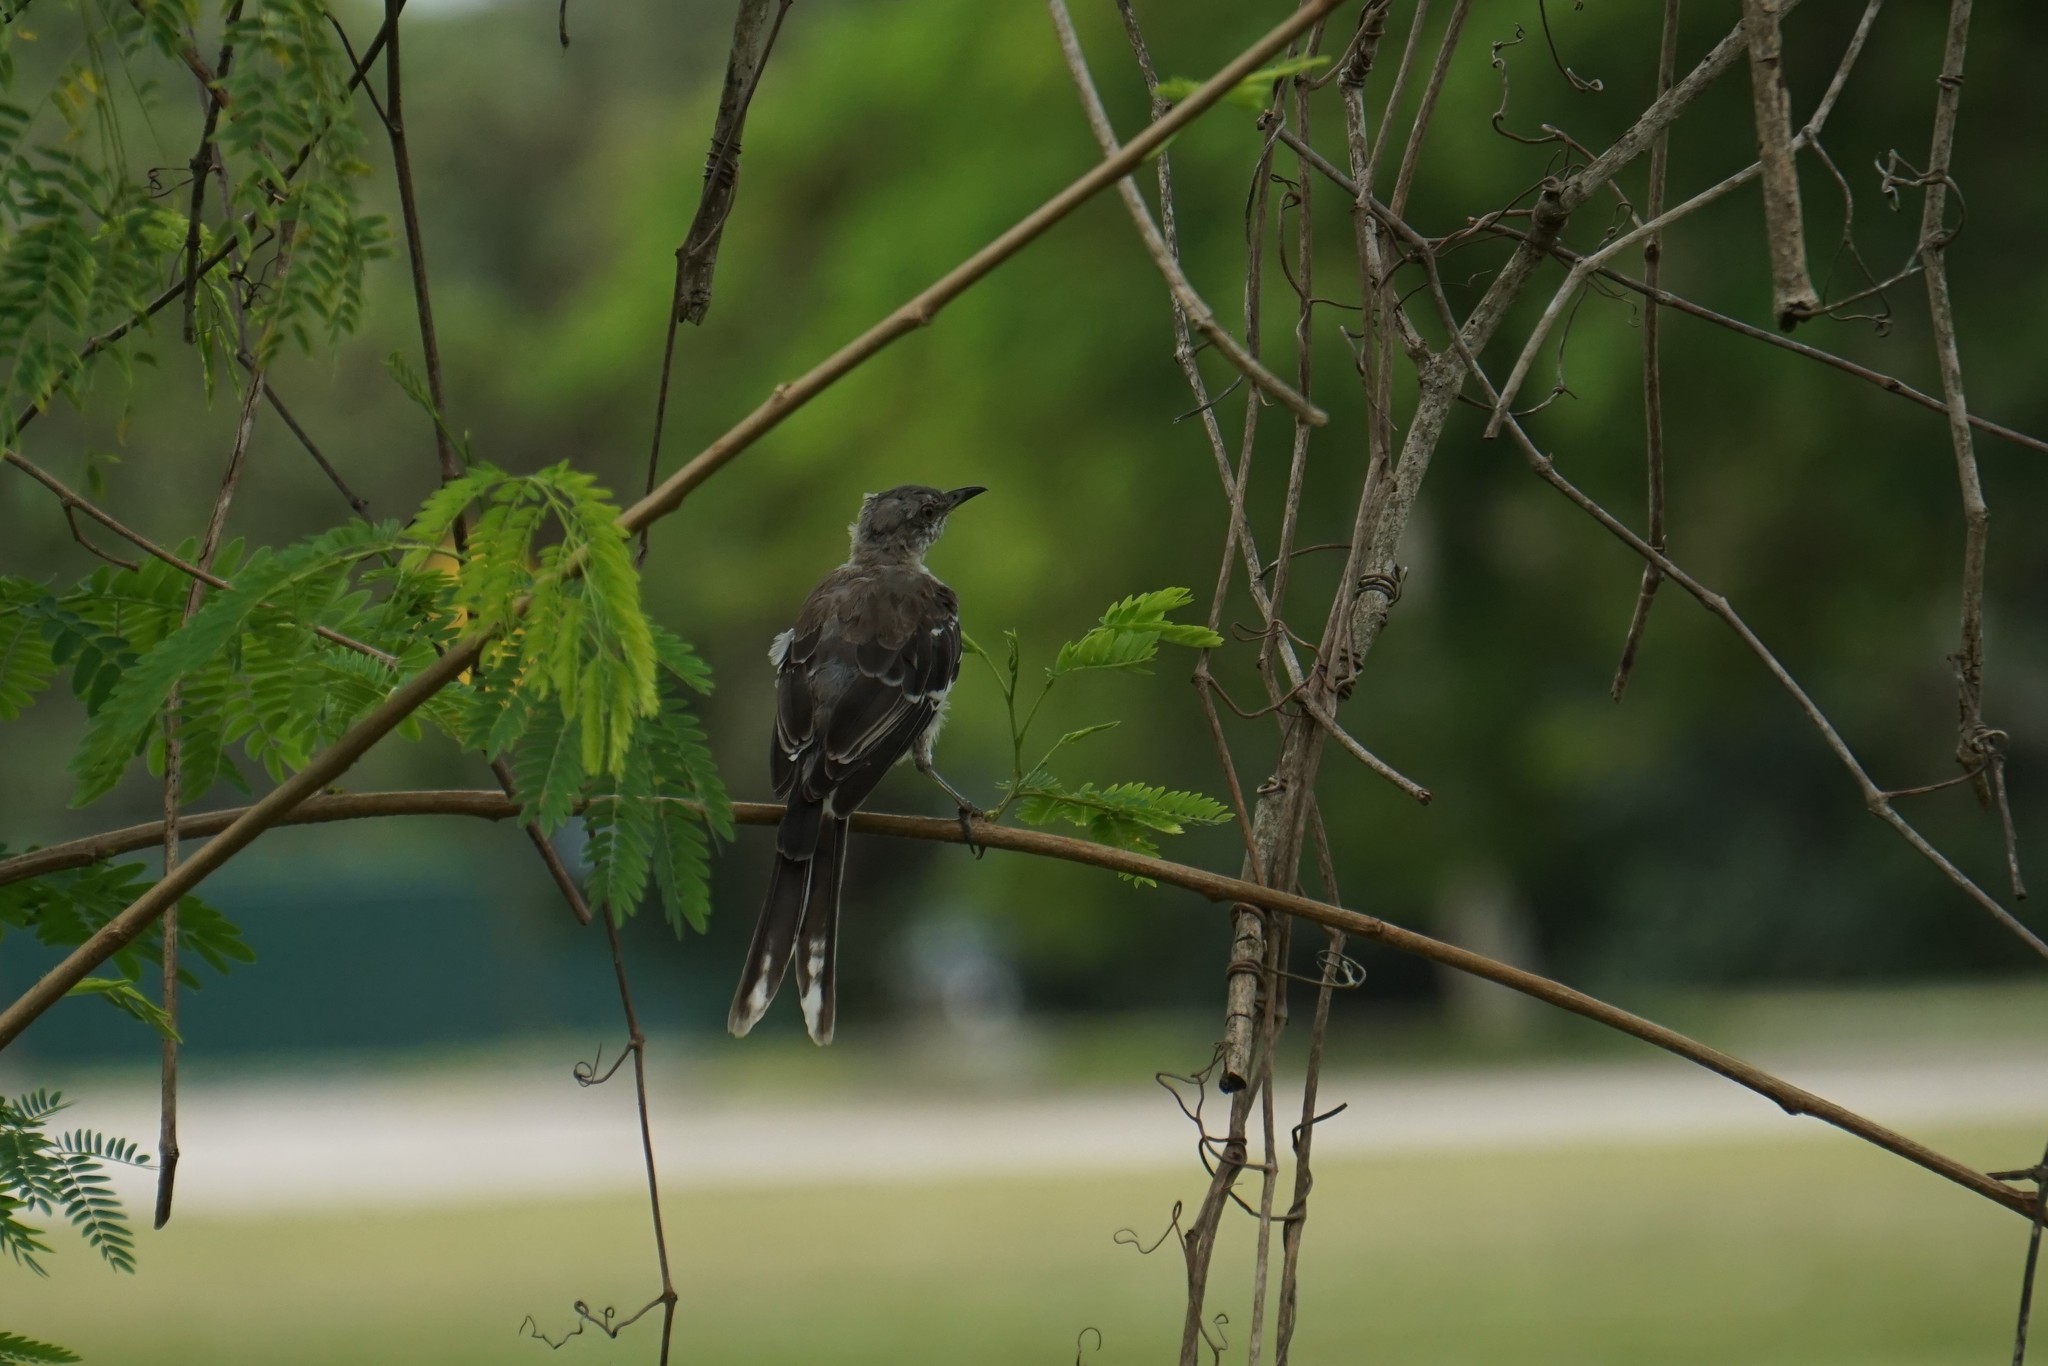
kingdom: Animalia
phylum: Chordata
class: Aves
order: Passeriformes
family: Mimidae
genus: Mimus
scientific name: Mimus polyglottos
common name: Northern mockingbird
